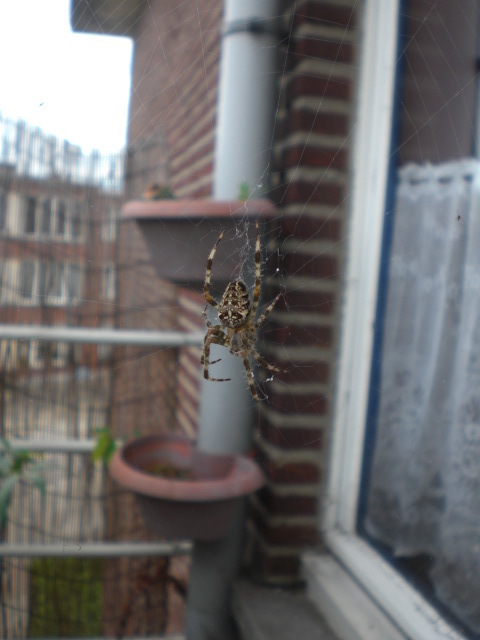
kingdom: Animalia
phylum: Arthropoda
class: Arachnida
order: Araneae
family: Araneidae
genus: Araneus
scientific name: Araneus diadematus
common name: Cross orbweaver
